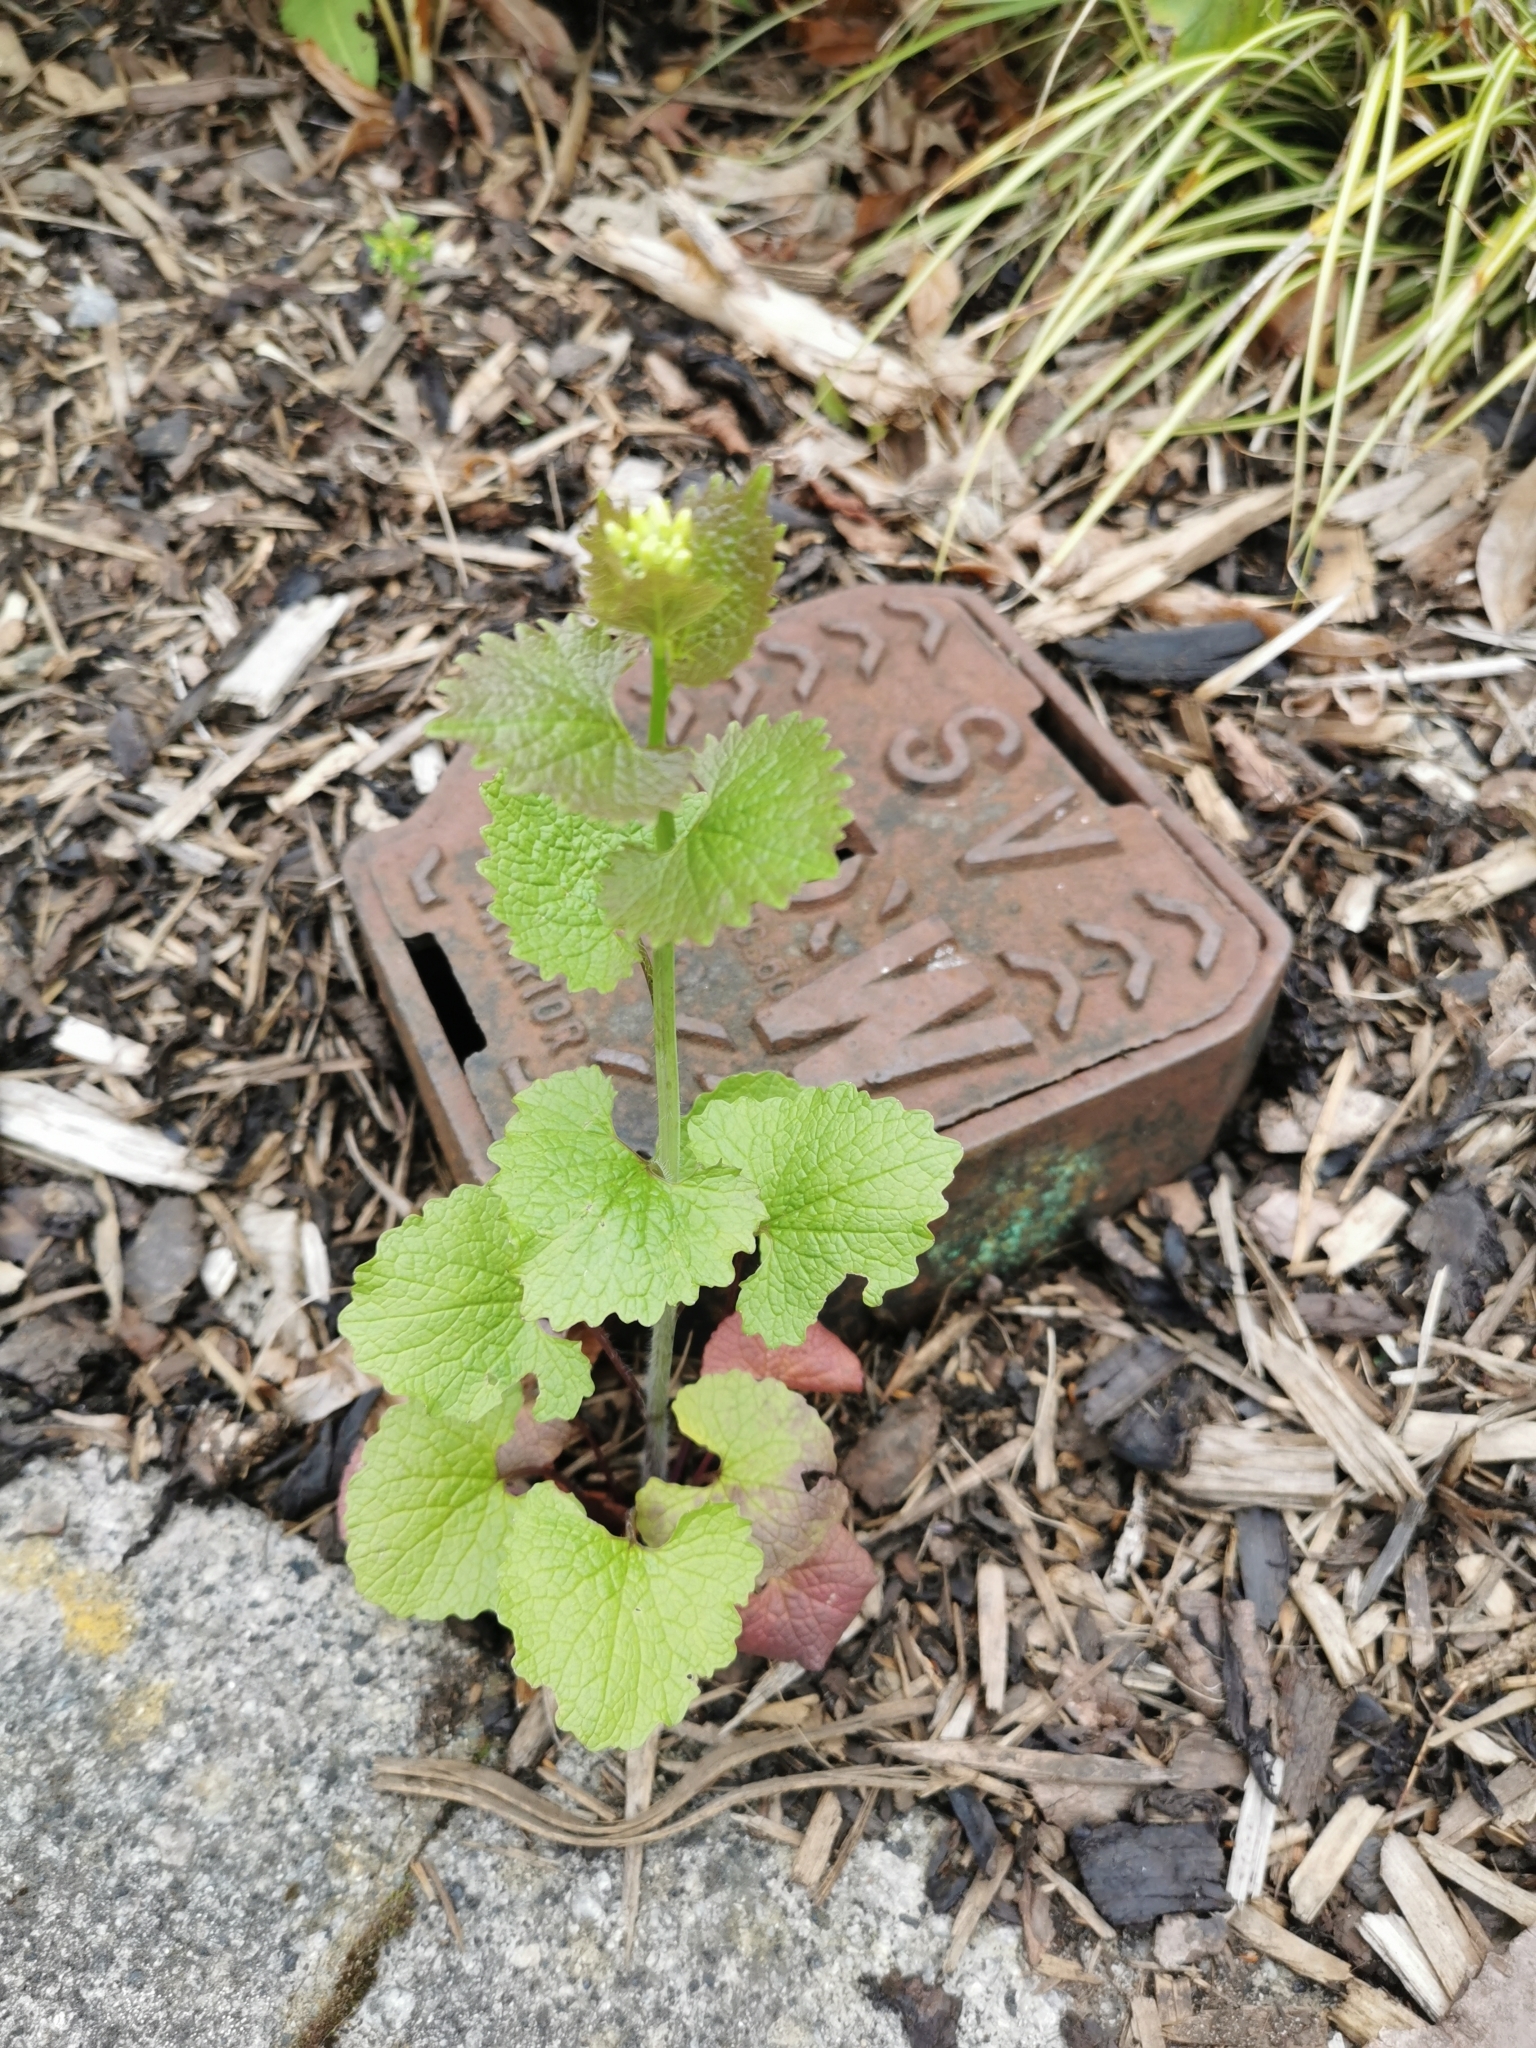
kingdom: Plantae
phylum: Tracheophyta
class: Magnoliopsida
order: Brassicales
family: Brassicaceae
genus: Alliaria
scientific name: Alliaria petiolata
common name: Garlic mustard
